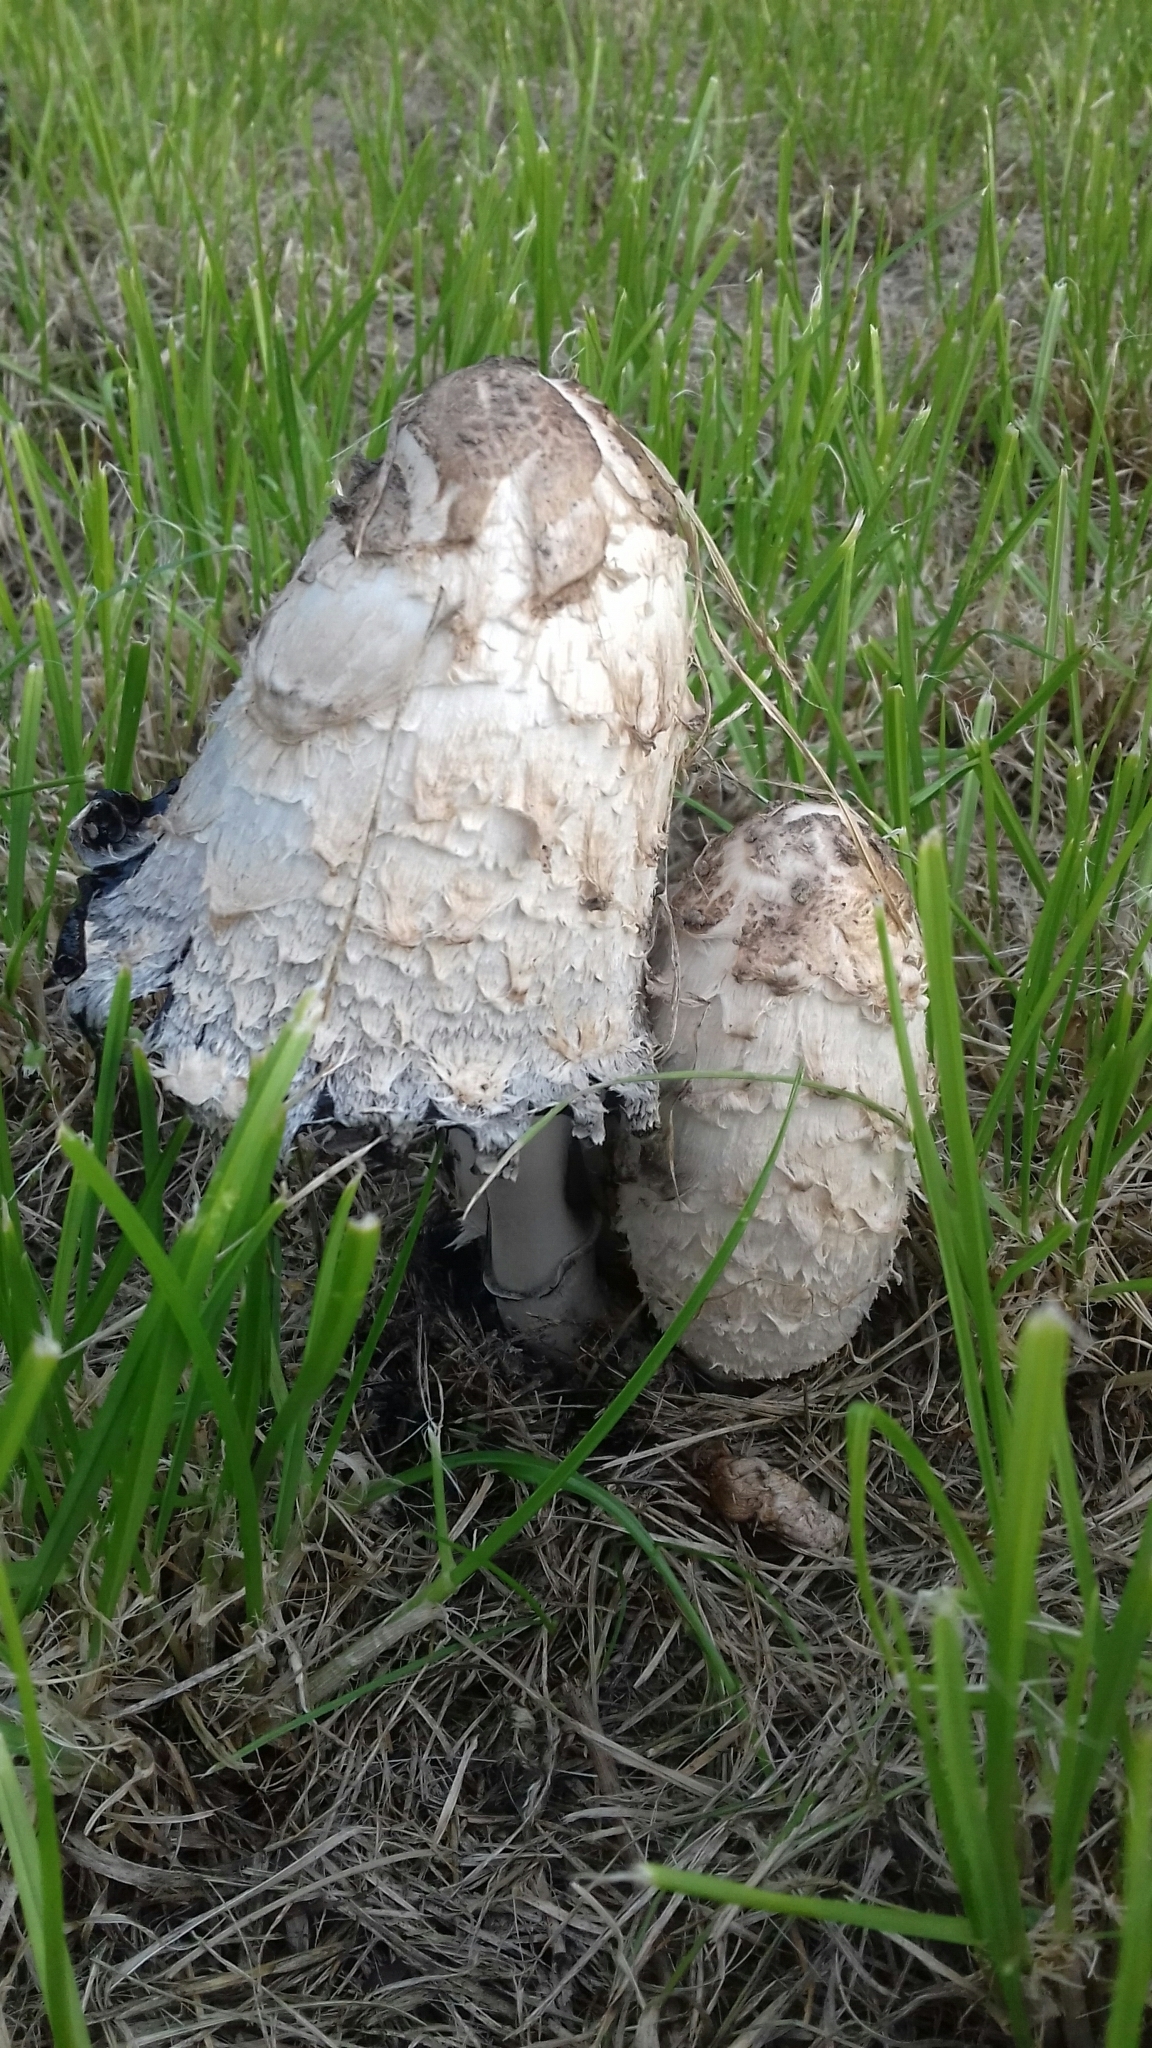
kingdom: Fungi
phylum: Basidiomycota
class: Agaricomycetes
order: Agaricales
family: Agaricaceae
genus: Coprinus
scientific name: Coprinus comatus
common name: Lawyer's wig
